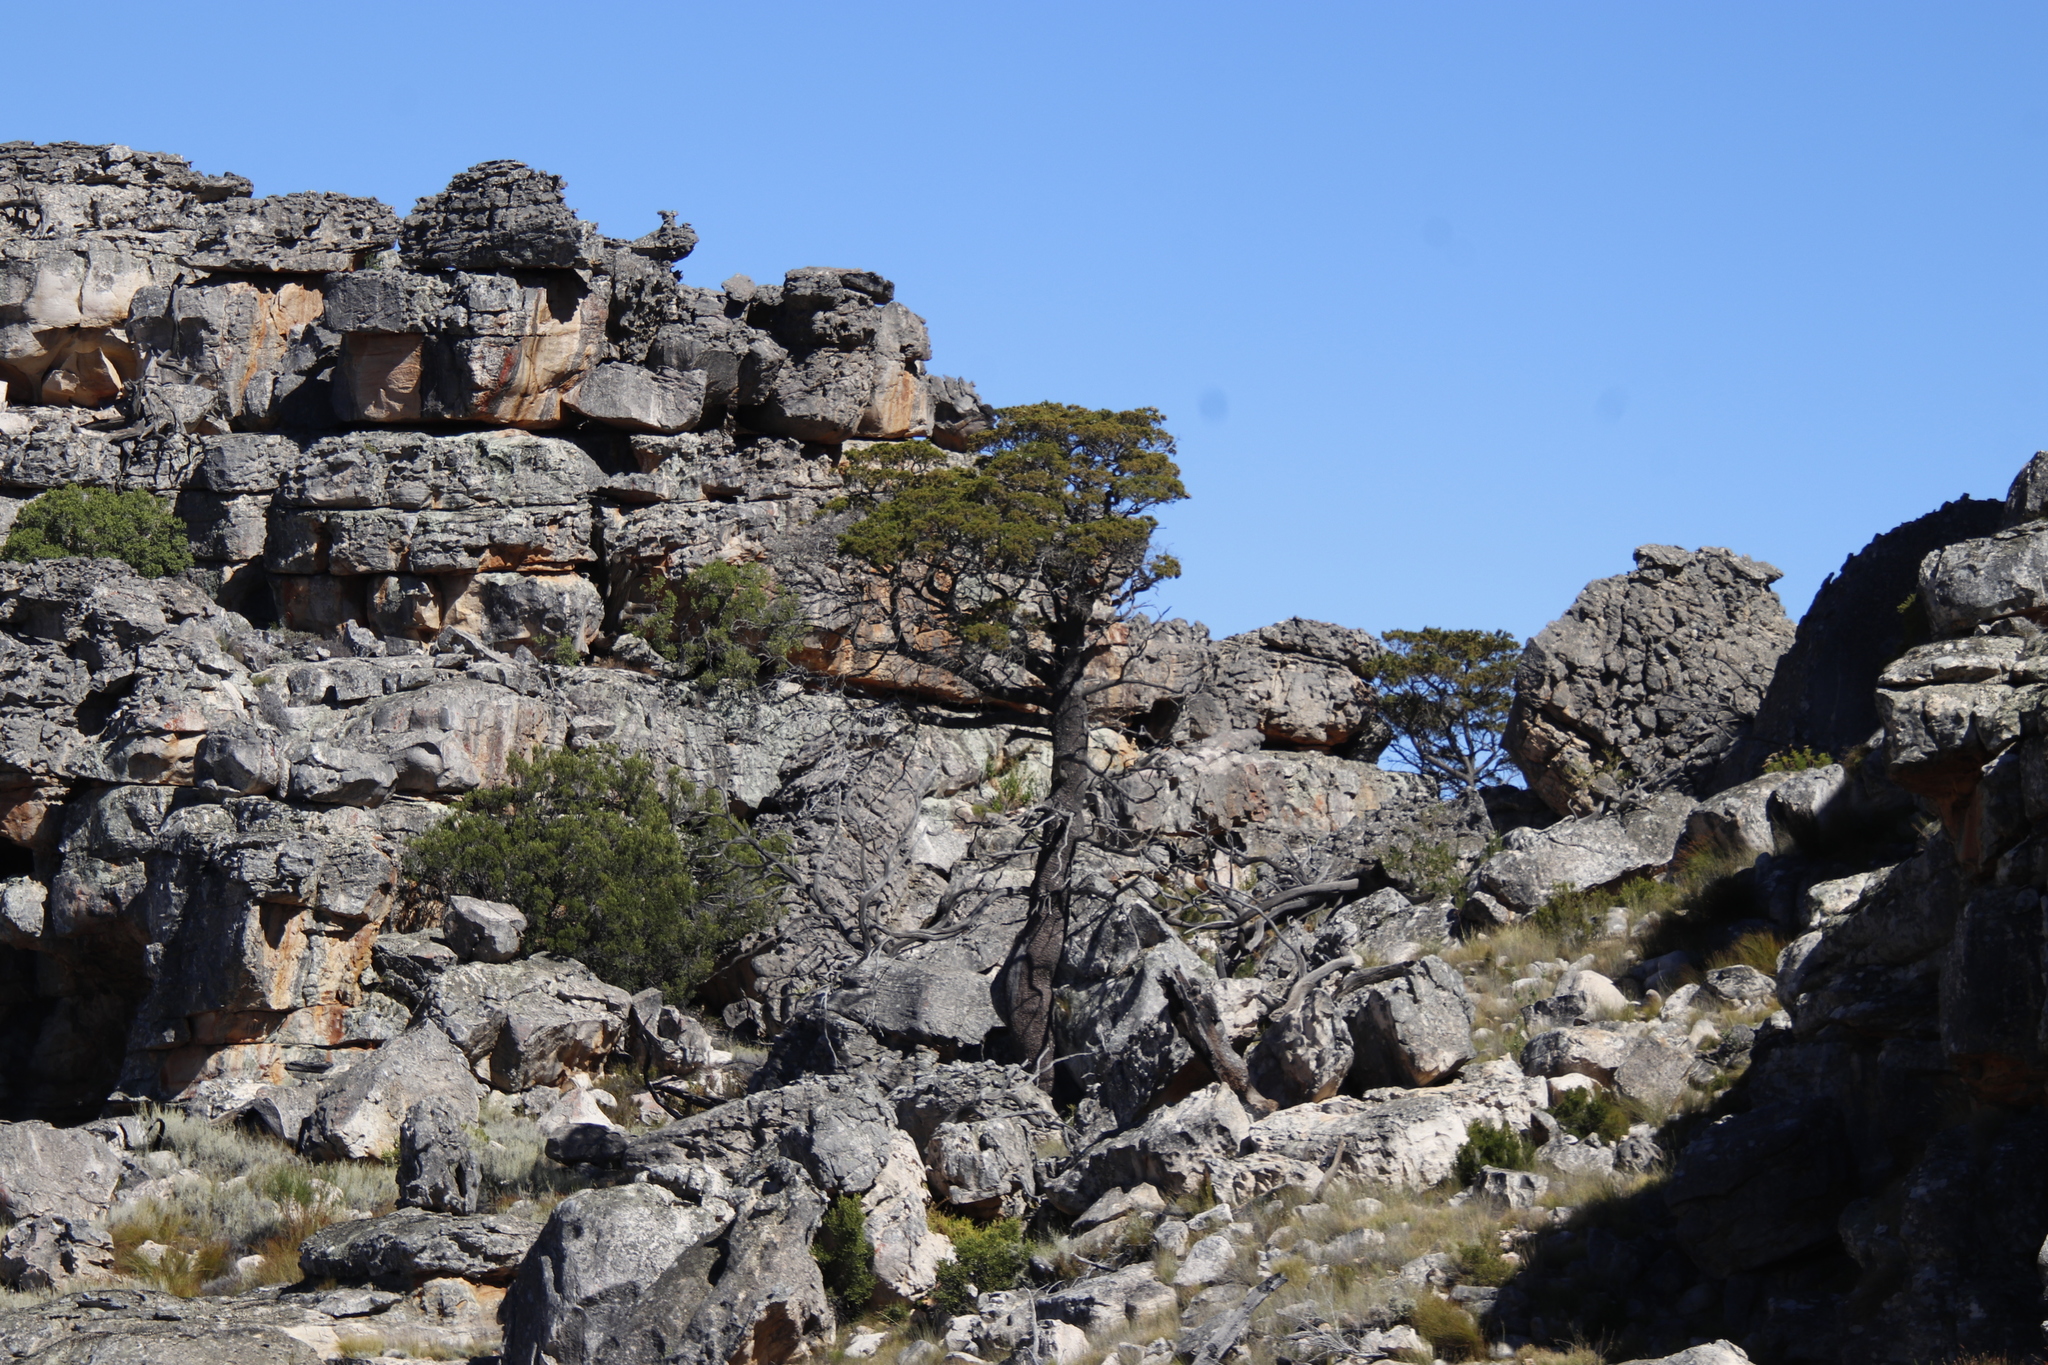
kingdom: Plantae
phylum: Tracheophyta
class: Pinopsida
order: Pinales
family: Cupressaceae
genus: Widdringtonia
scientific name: Widdringtonia nodiflora
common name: Cape cypress
